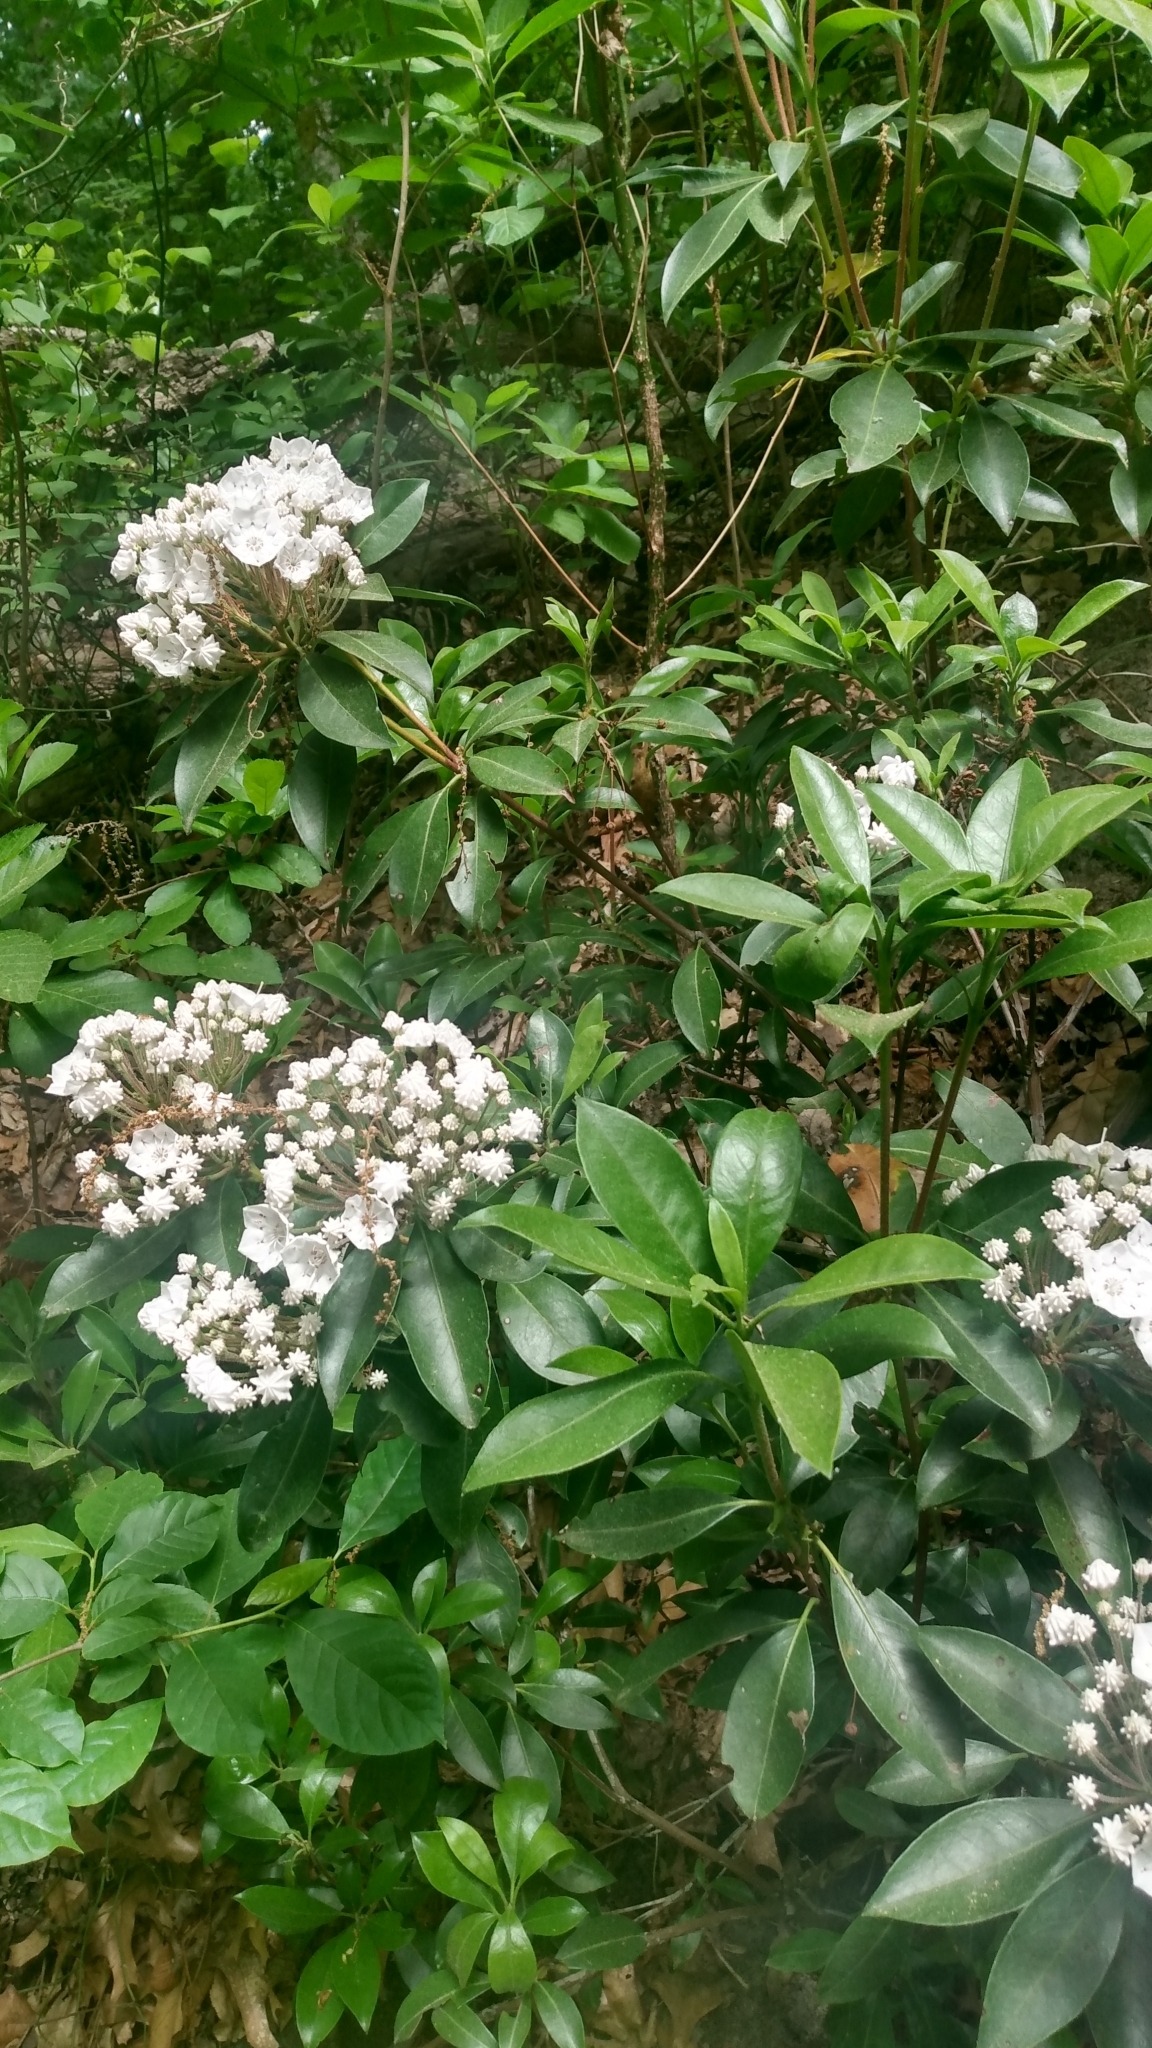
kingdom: Plantae
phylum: Tracheophyta
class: Magnoliopsida
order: Ericales
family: Ericaceae
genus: Kalmia
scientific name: Kalmia latifolia
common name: Mountain-laurel
